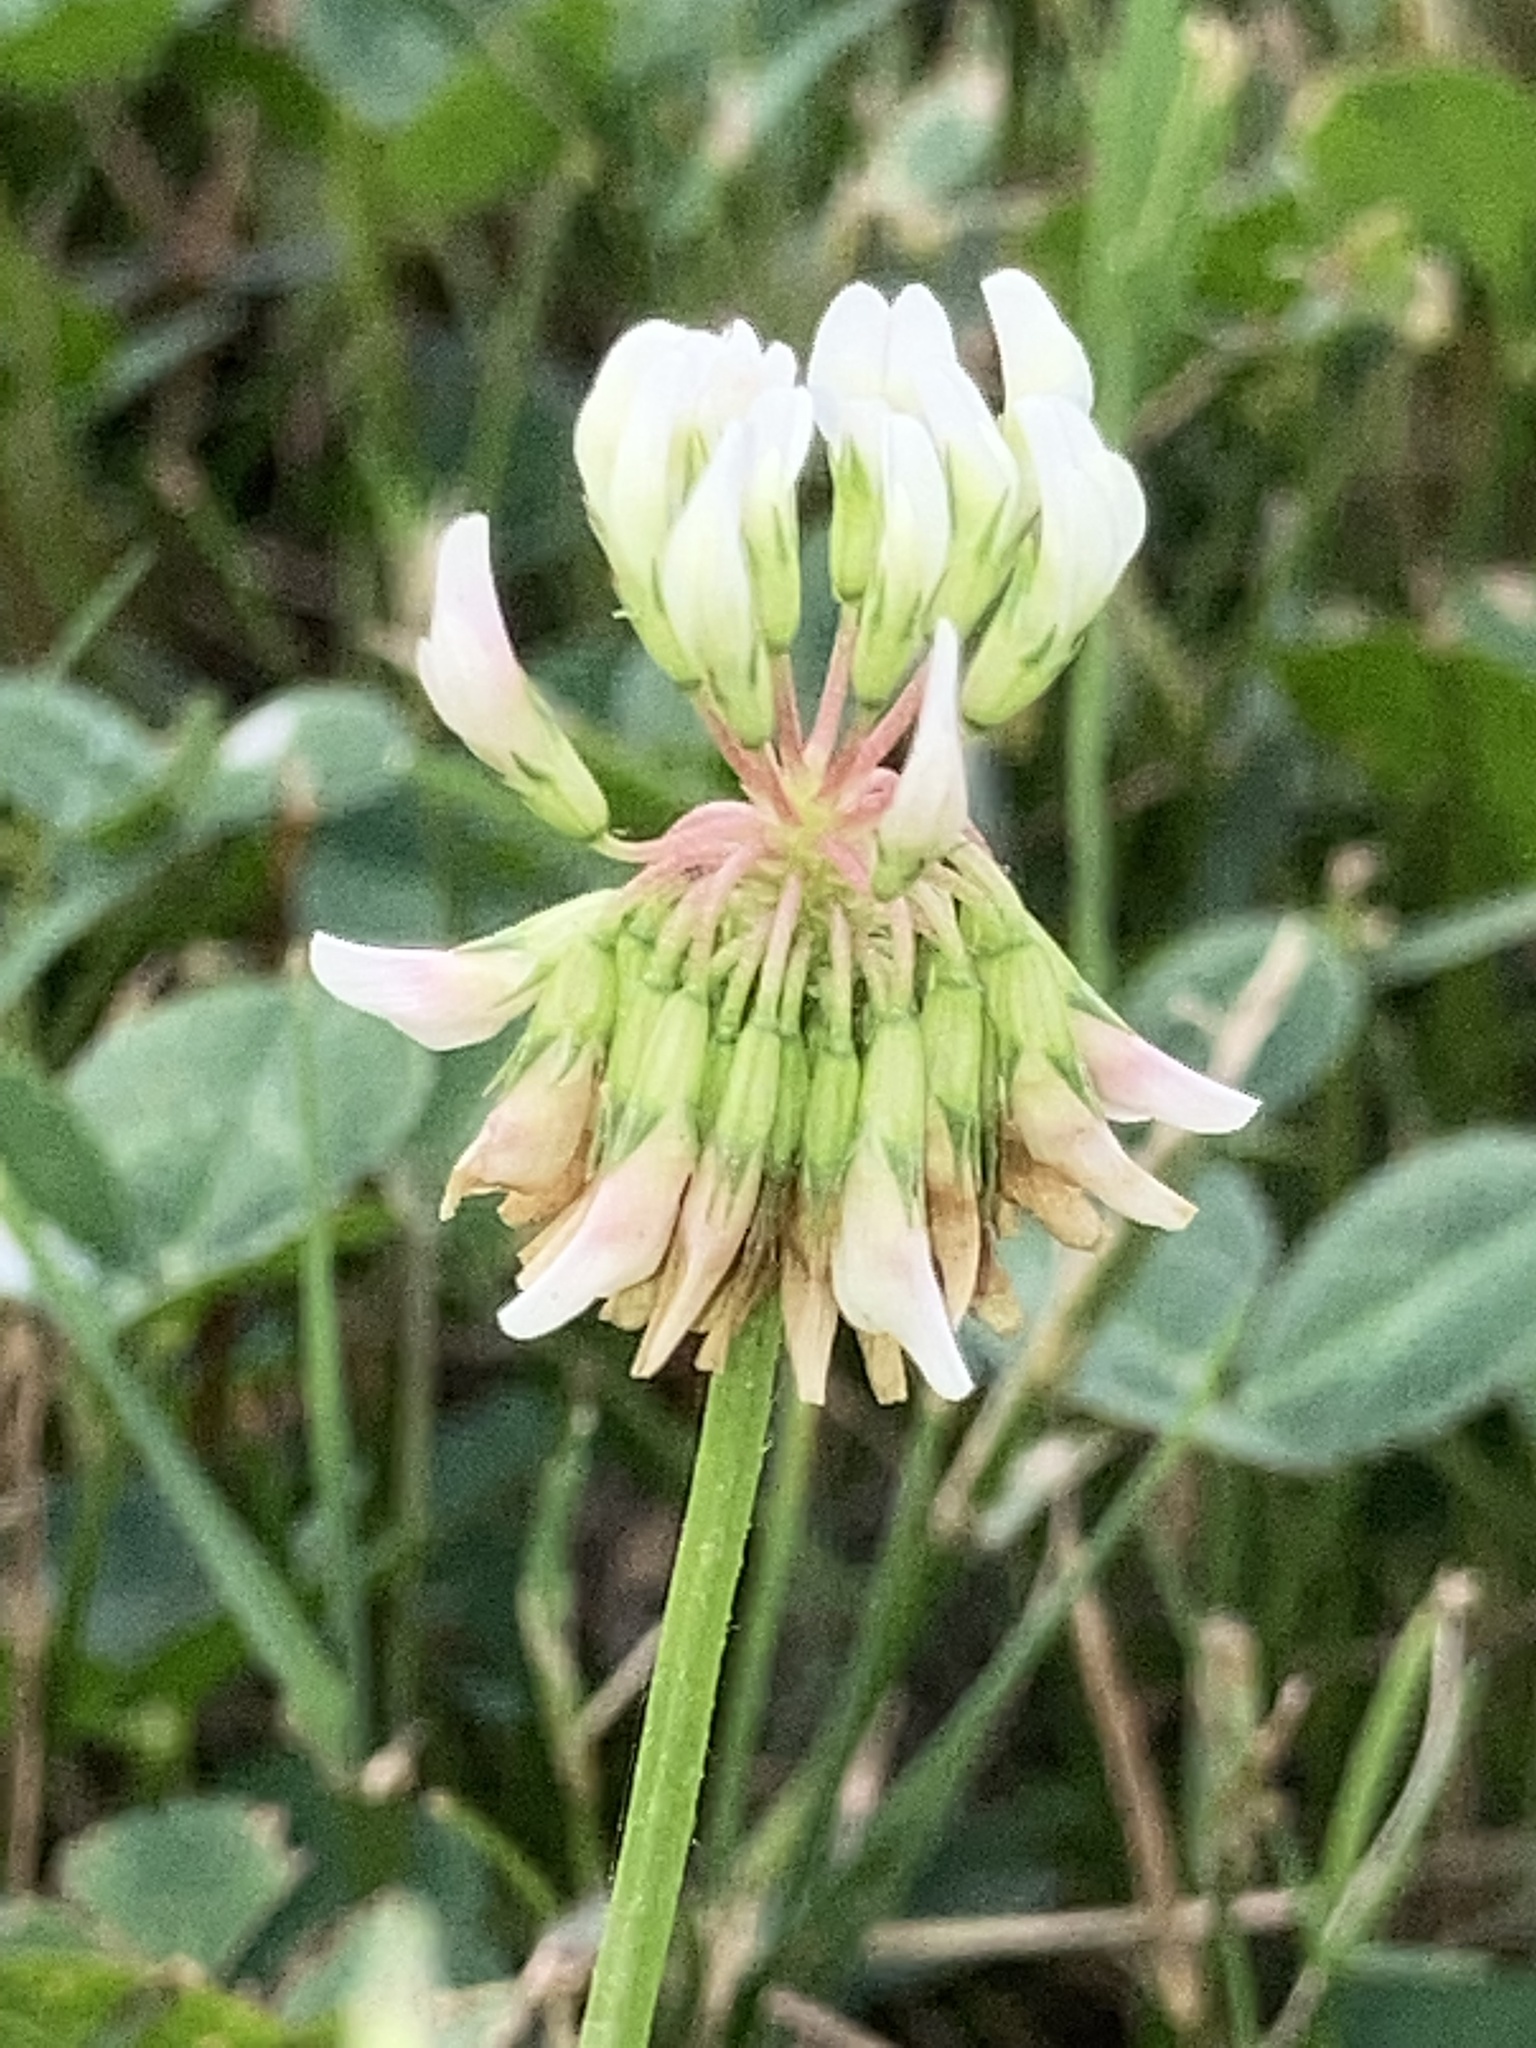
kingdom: Plantae
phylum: Tracheophyta
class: Magnoliopsida
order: Fabales
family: Fabaceae
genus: Trifolium
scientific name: Trifolium repens
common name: White clover
